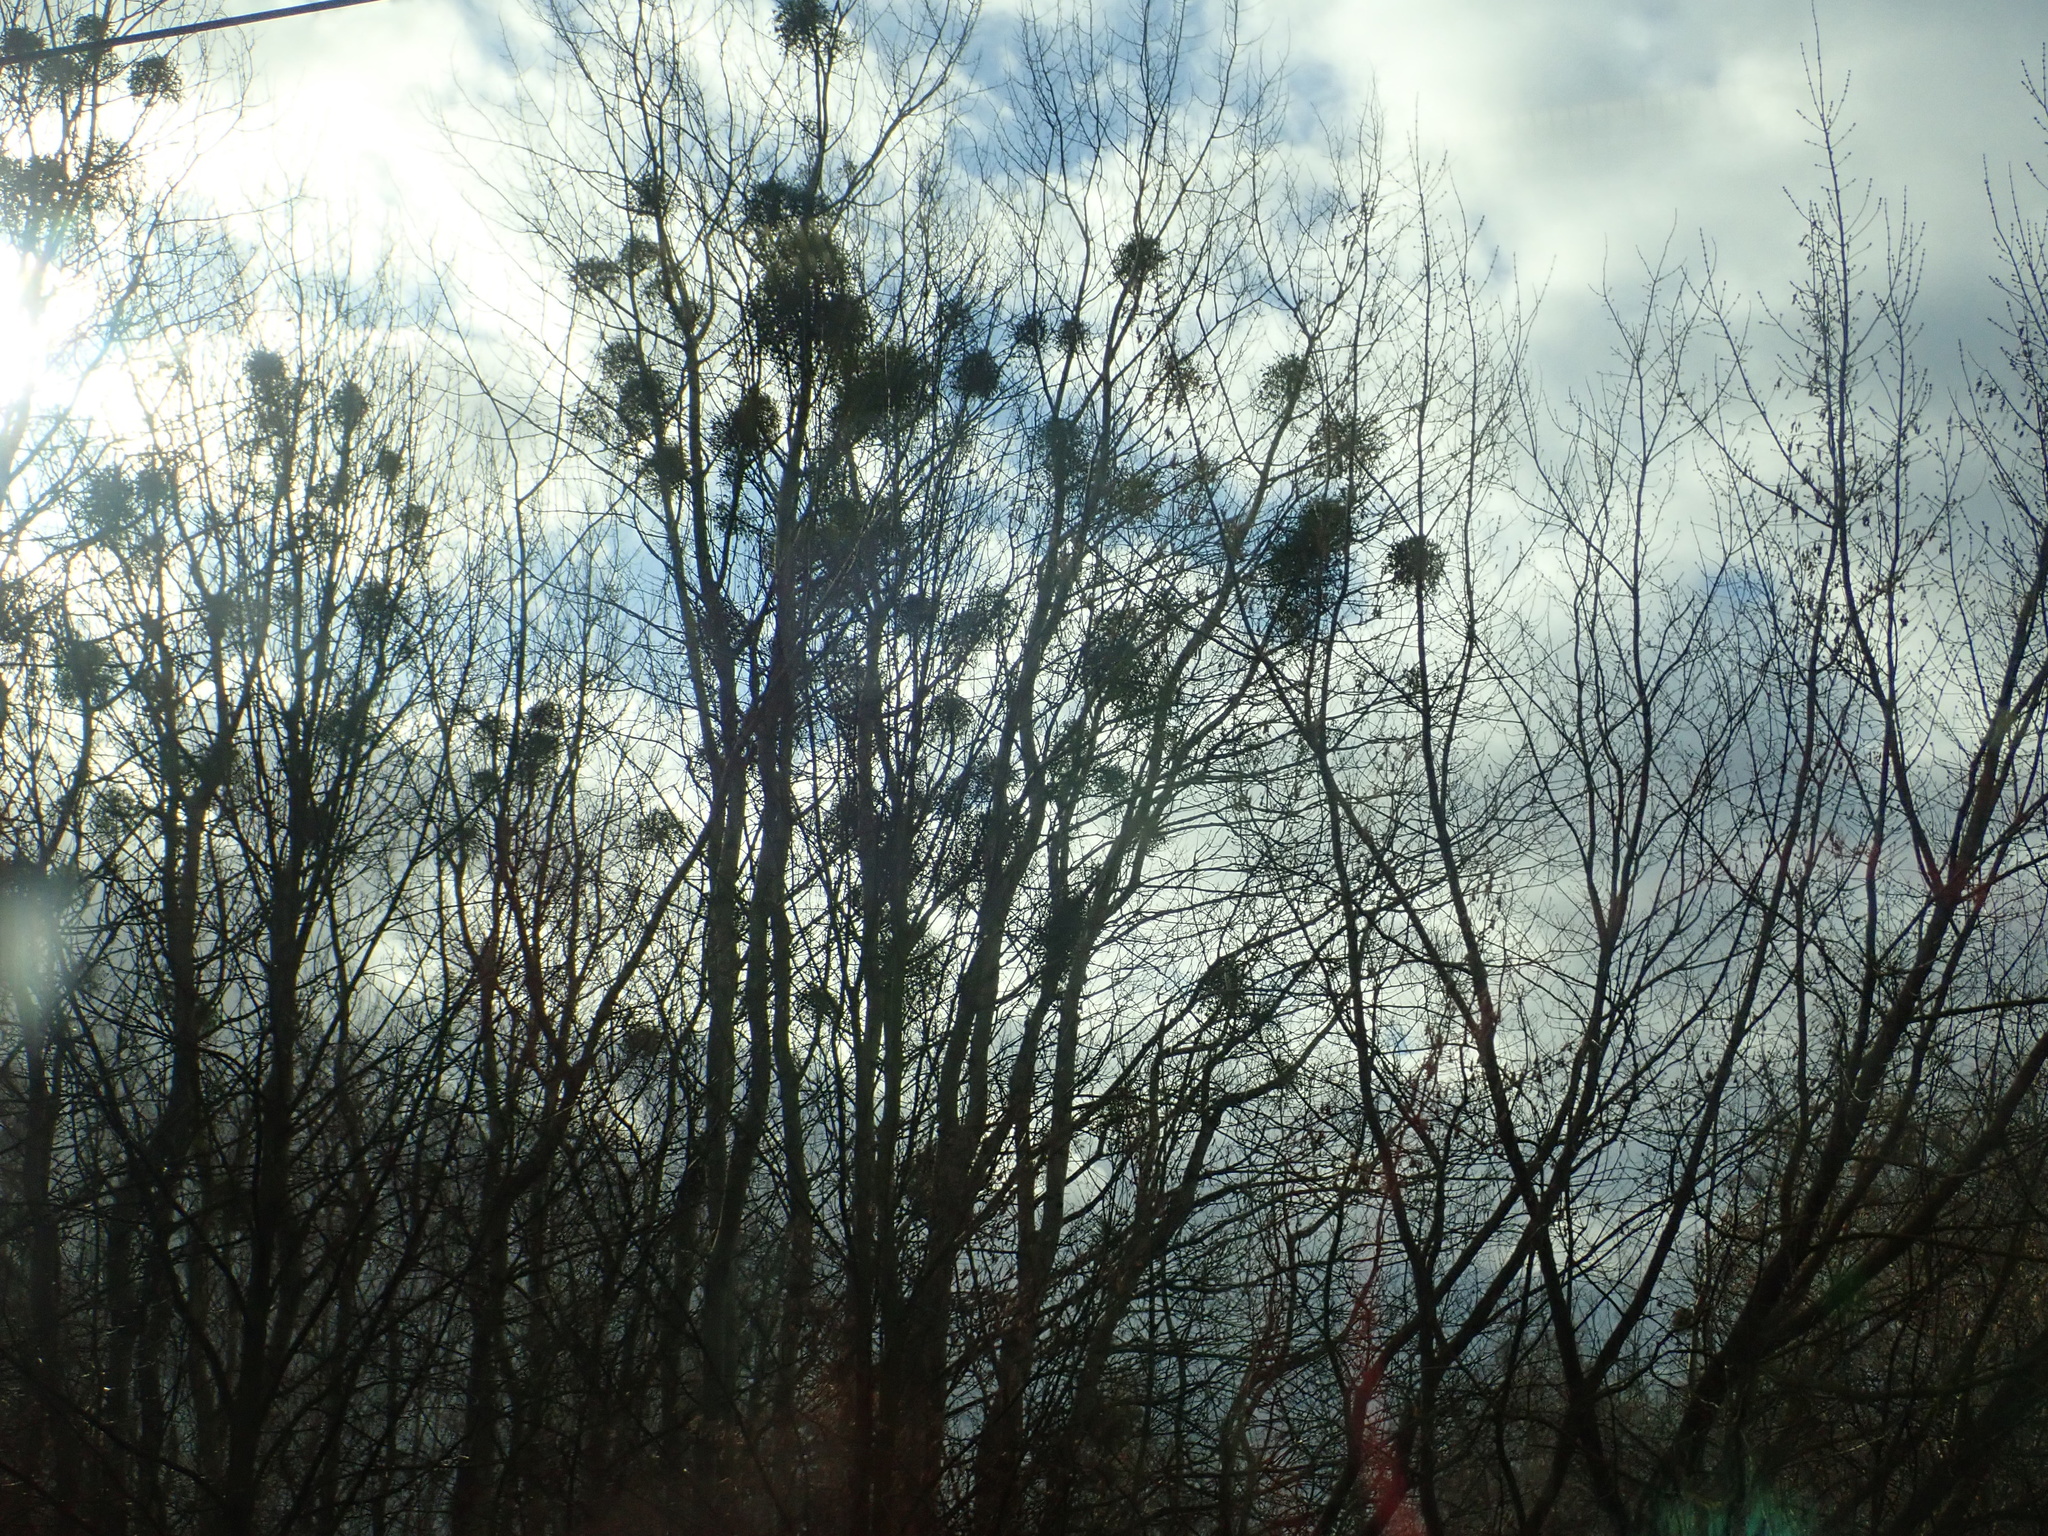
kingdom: Plantae
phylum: Tracheophyta
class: Magnoliopsida
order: Santalales
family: Viscaceae
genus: Viscum
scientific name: Viscum album
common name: Mistletoe
